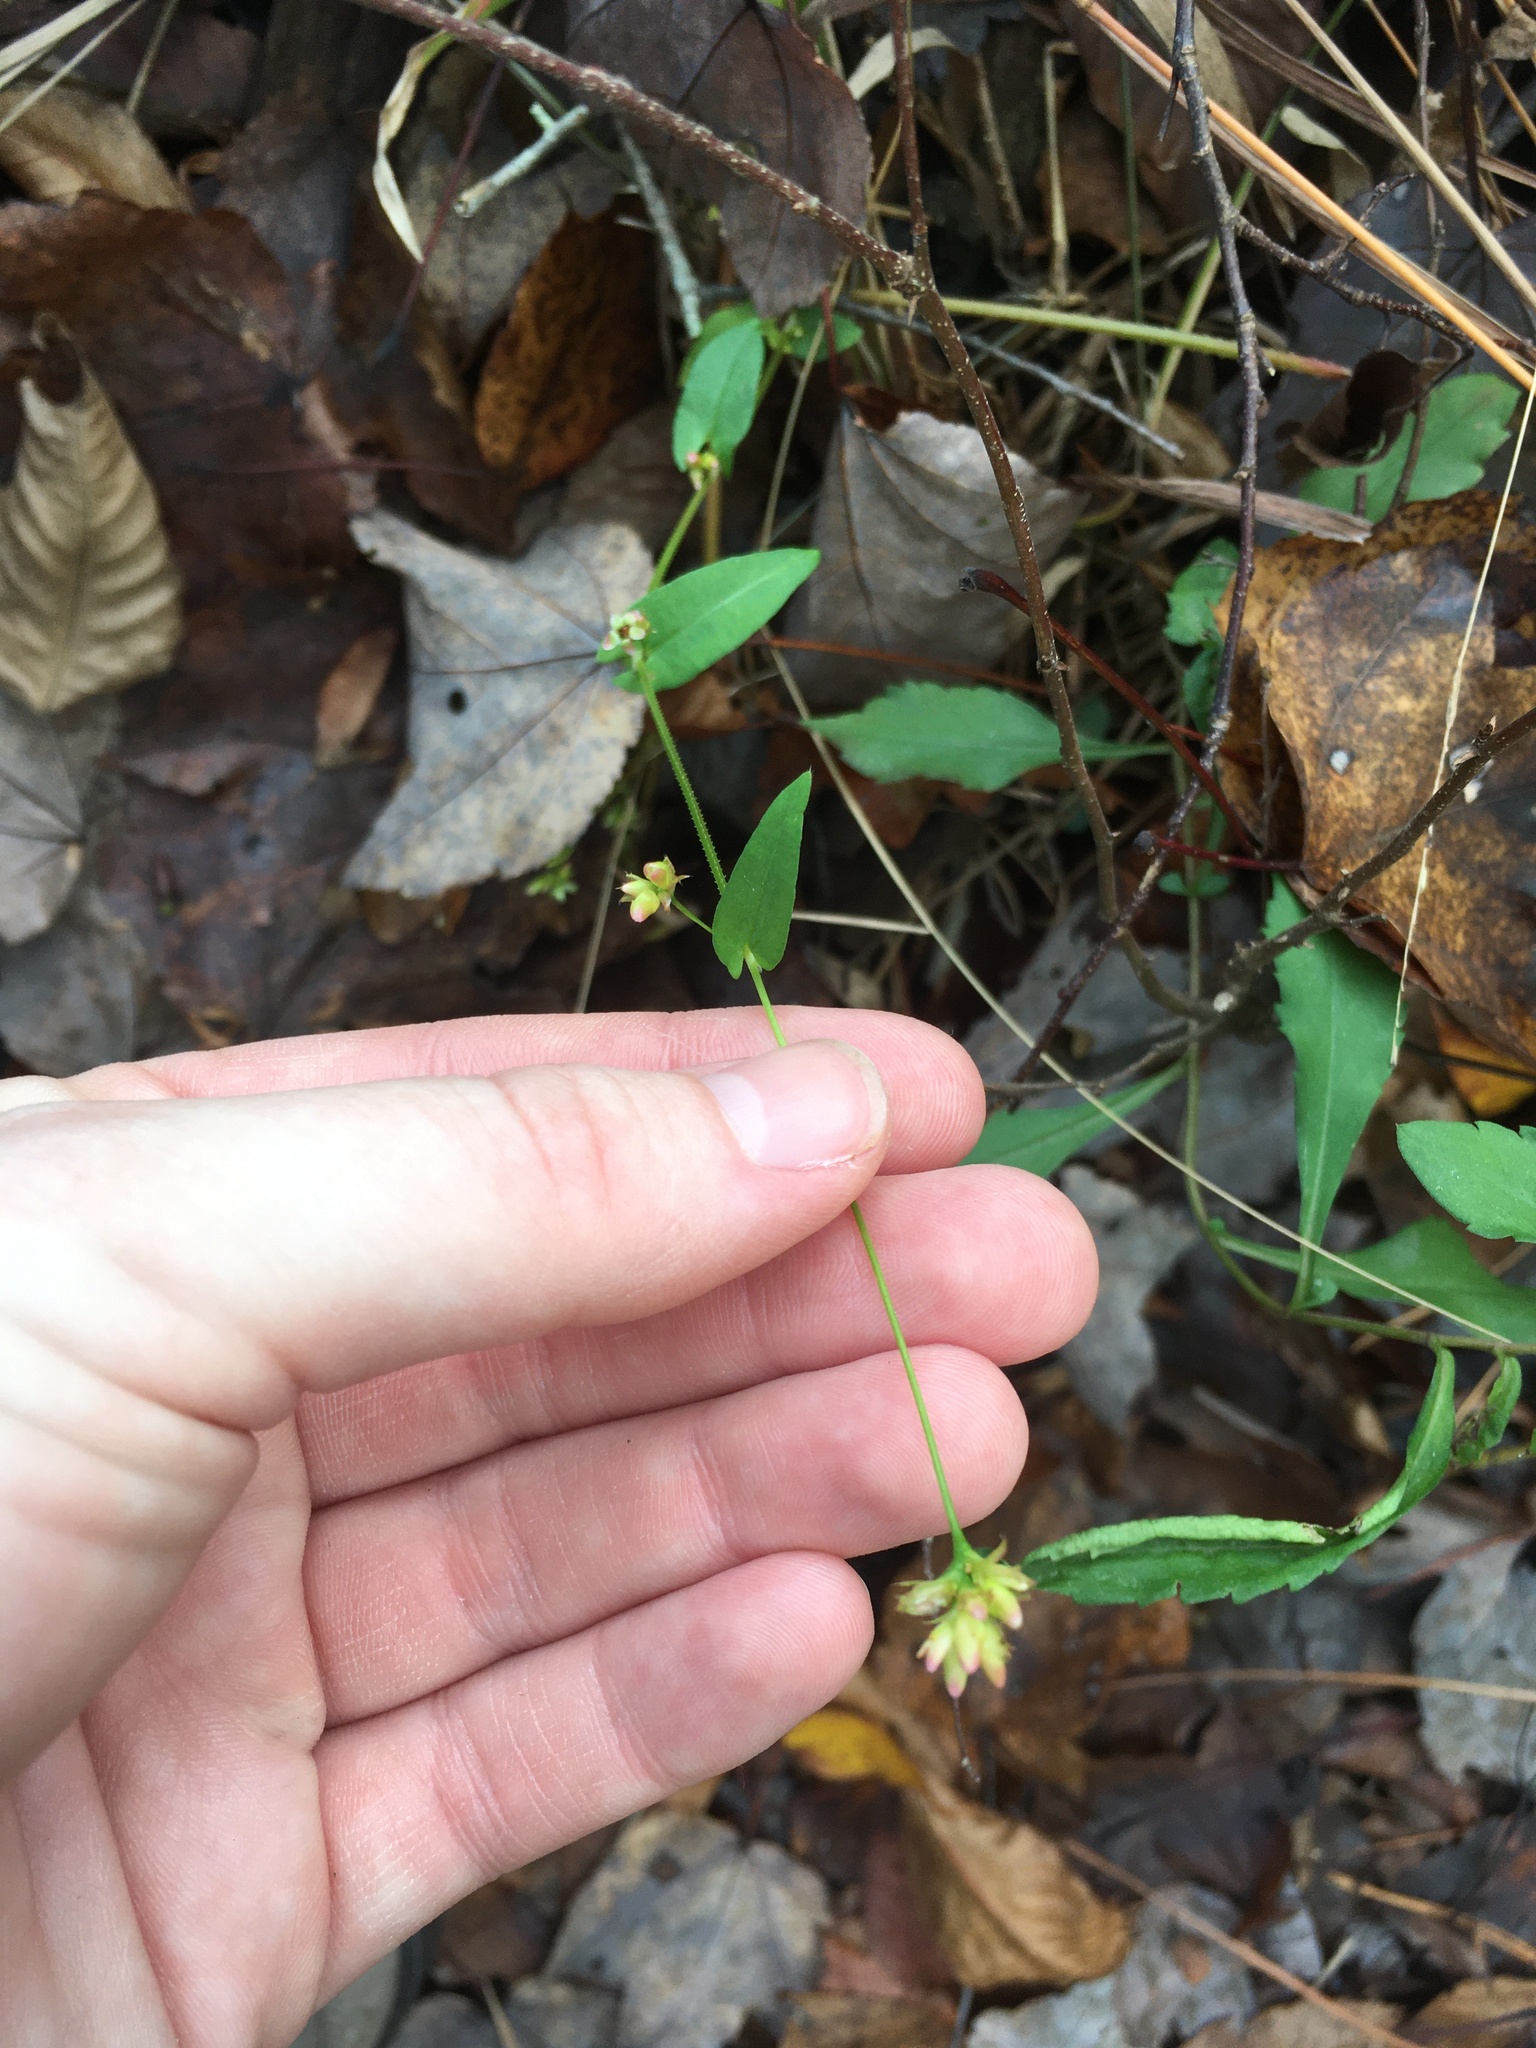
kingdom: Plantae
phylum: Tracheophyta
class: Magnoliopsida
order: Caryophyllales
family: Polygonaceae
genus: Persicaria
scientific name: Persicaria sagittata
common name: American tearthumb
